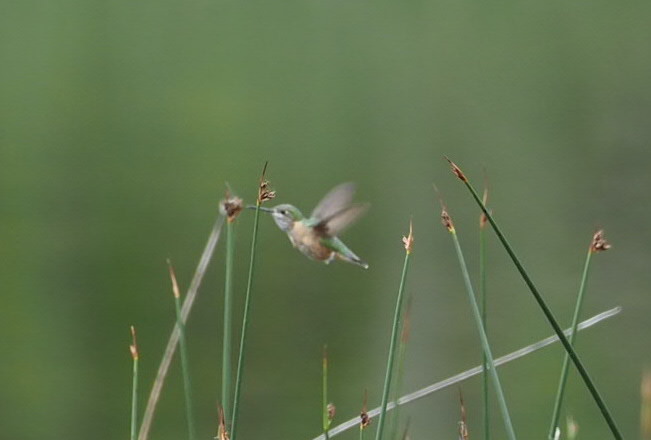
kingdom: Animalia
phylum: Chordata
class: Aves
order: Apodiformes
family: Trochilidae
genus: Selasphorus
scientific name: Selasphorus calliope
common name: Calliope hummingbird
